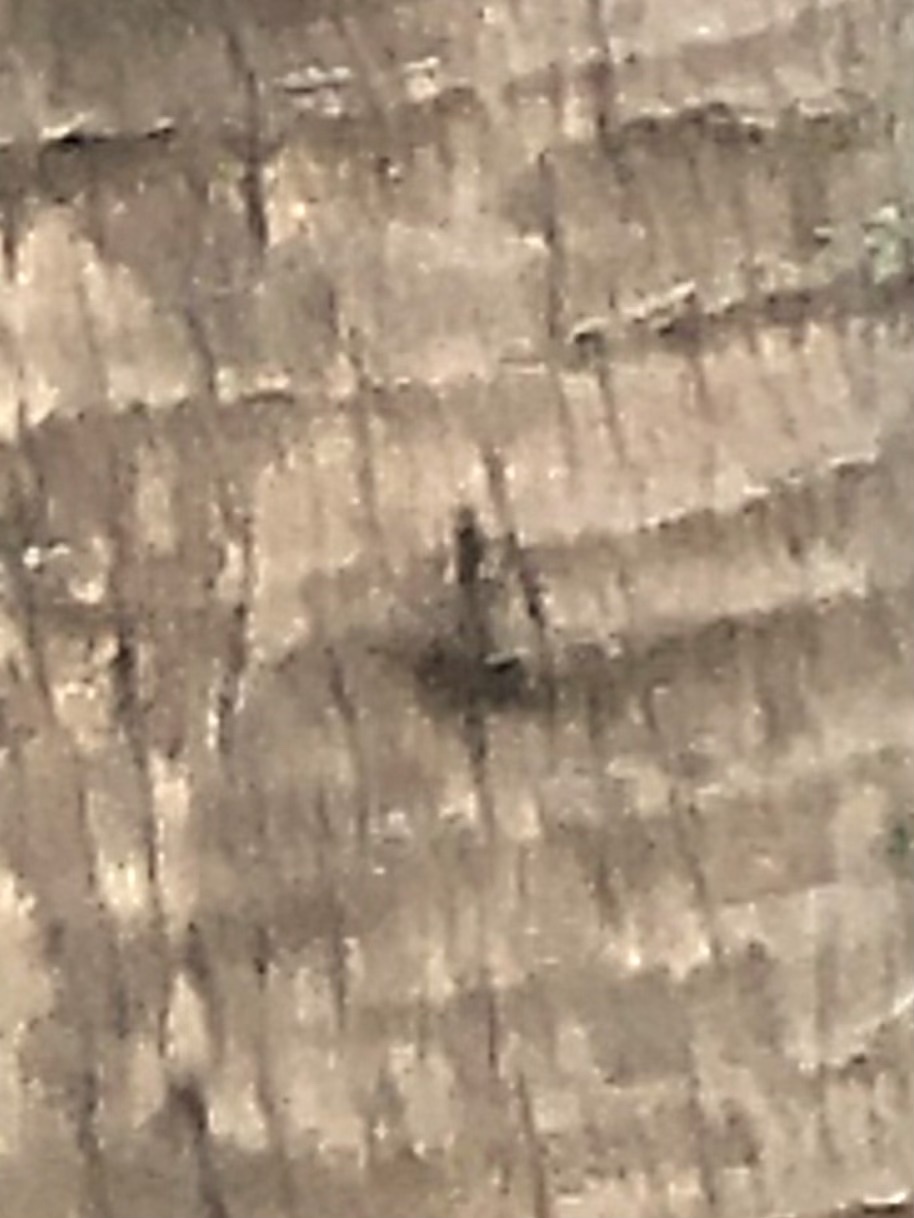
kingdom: Animalia
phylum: Chordata
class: Squamata
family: Dactyloidae
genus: Anolis
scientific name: Anolis
